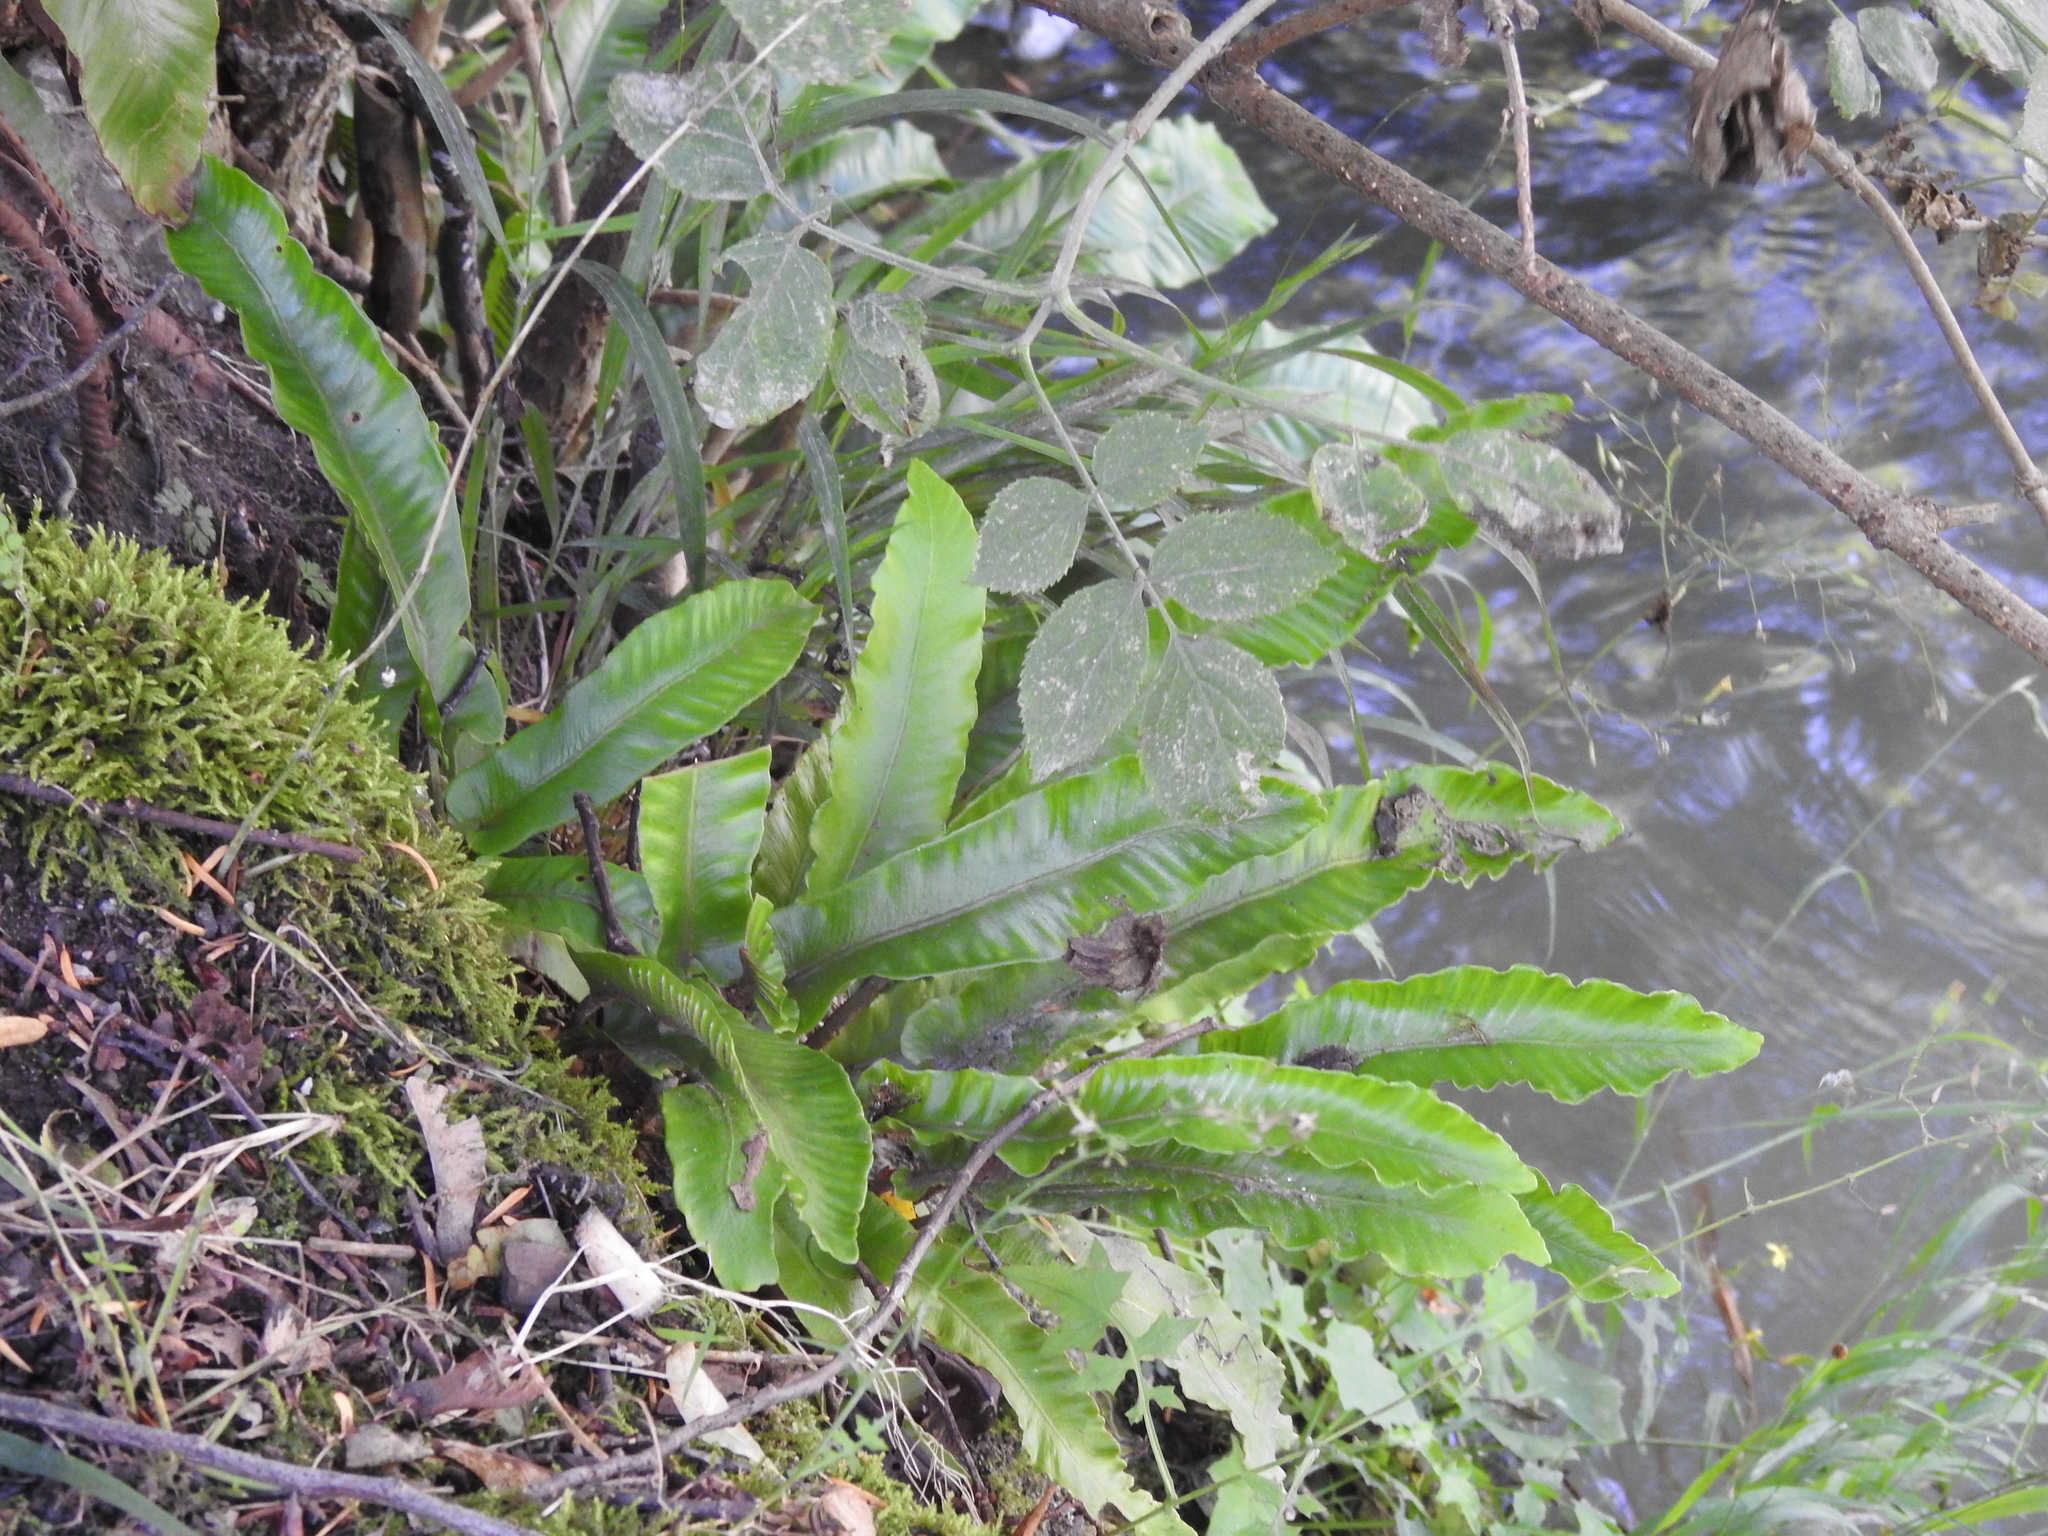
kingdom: Plantae
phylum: Tracheophyta
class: Polypodiopsida
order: Polypodiales
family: Aspleniaceae
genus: Asplenium
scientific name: Asplenium scolopendrium
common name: Hart's-tongue fern
